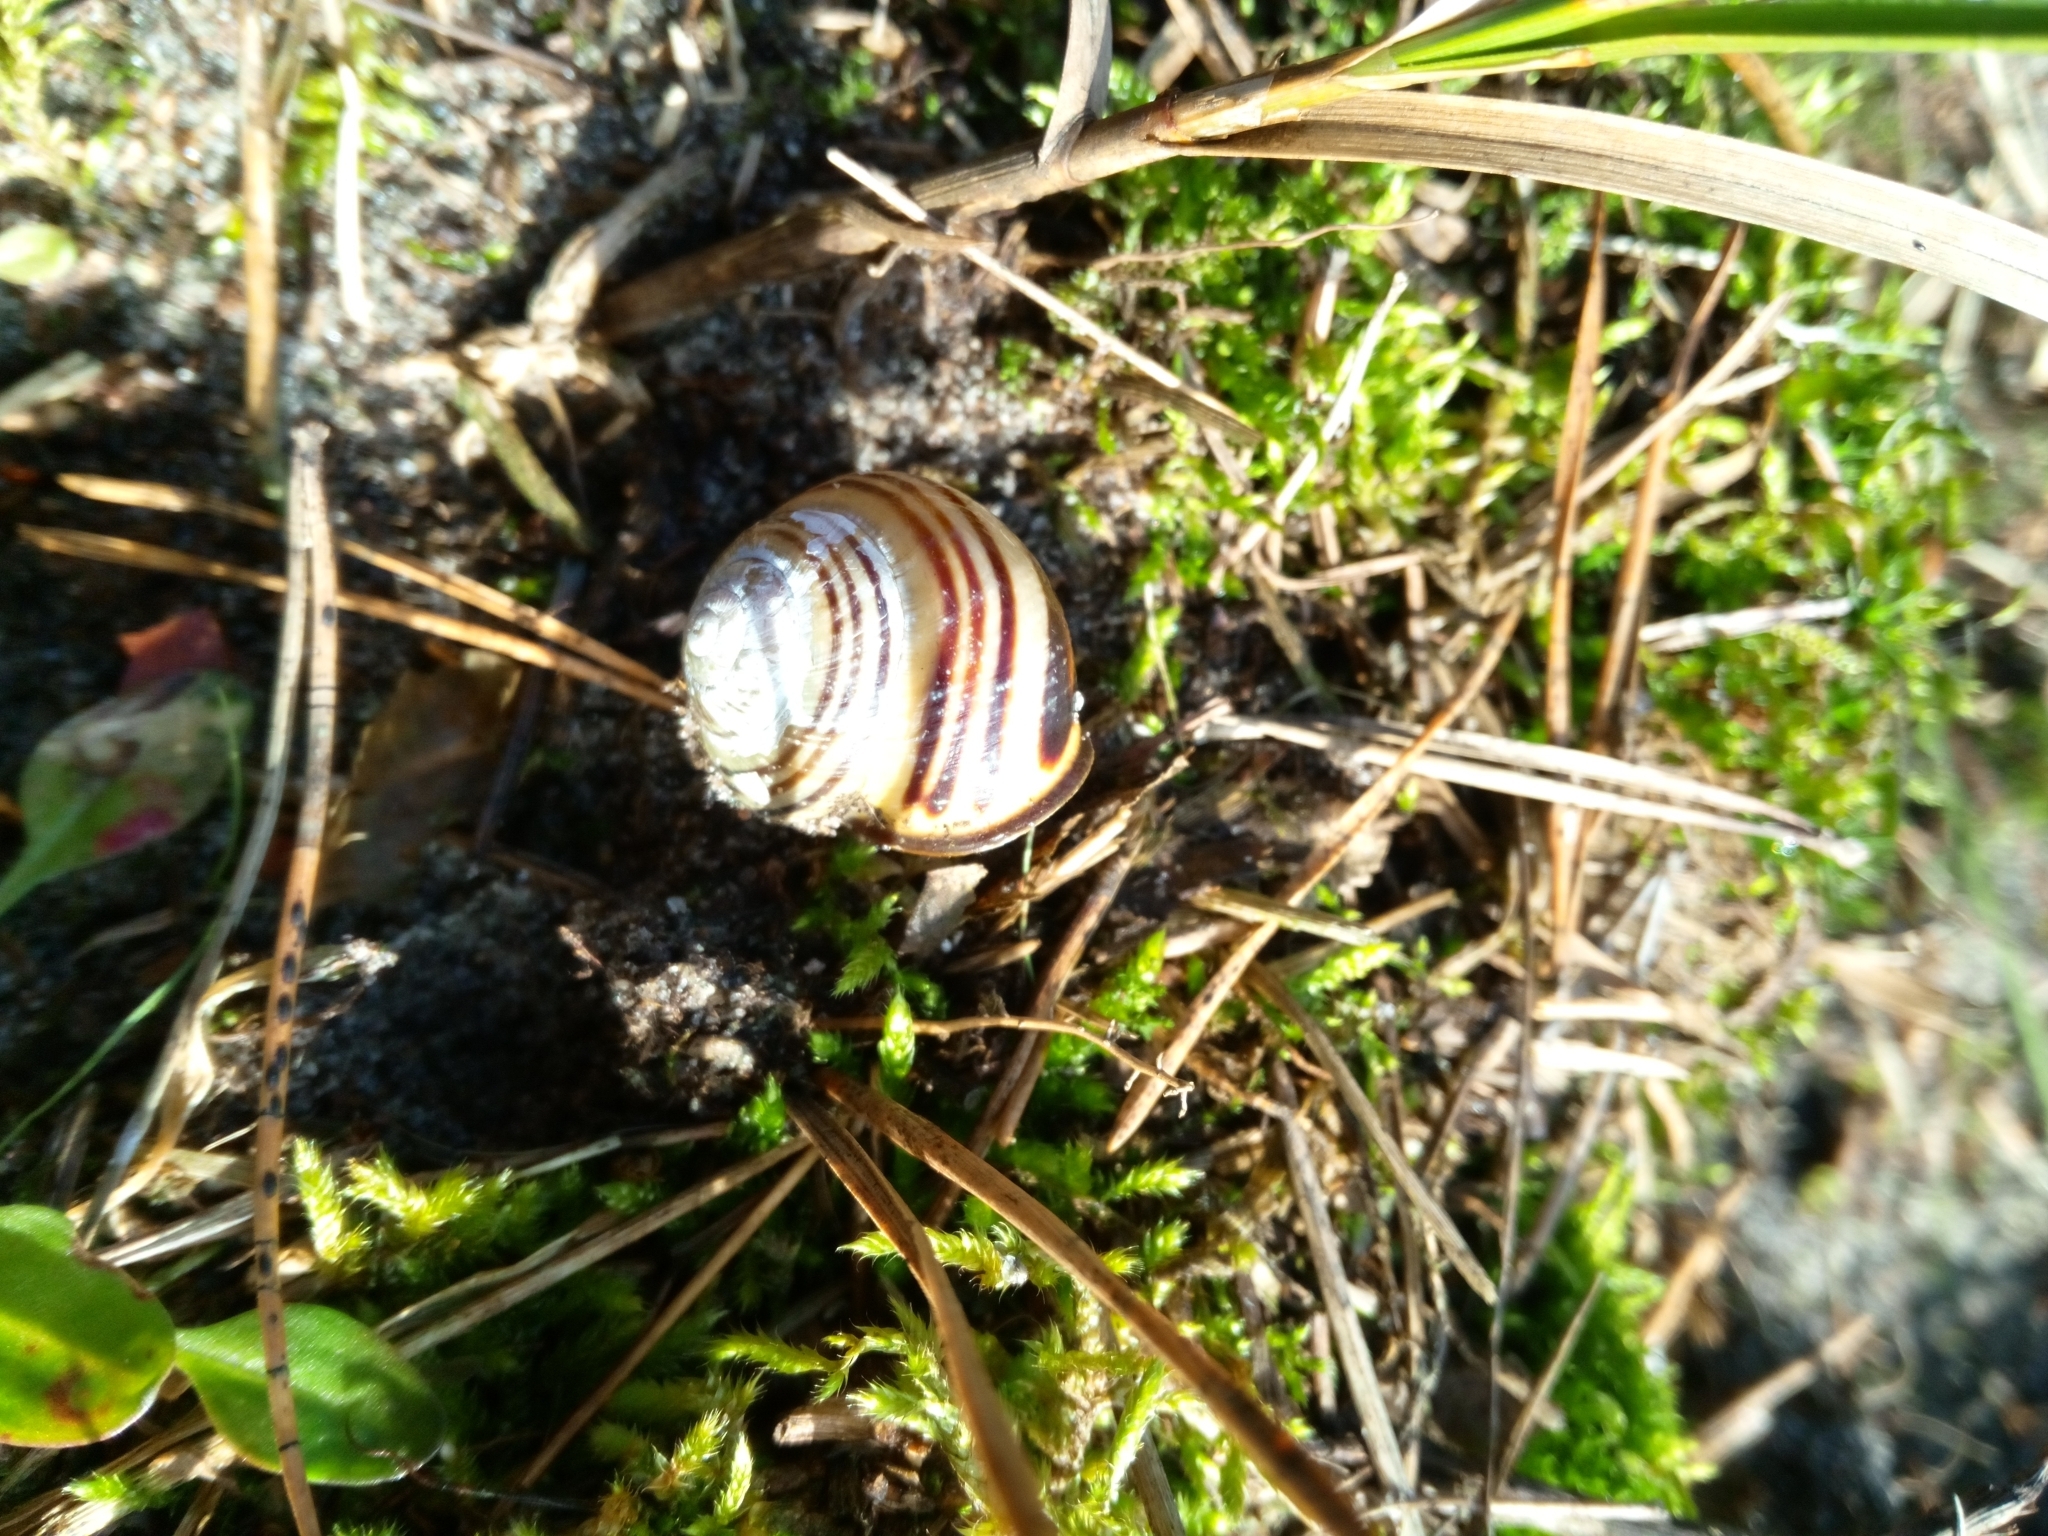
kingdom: Animalia
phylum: Mollusca
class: Gastropoda
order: Stylommatophora
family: Helicidae
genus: Cepaea
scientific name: Cepaea nemoralis
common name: Grovesnail
